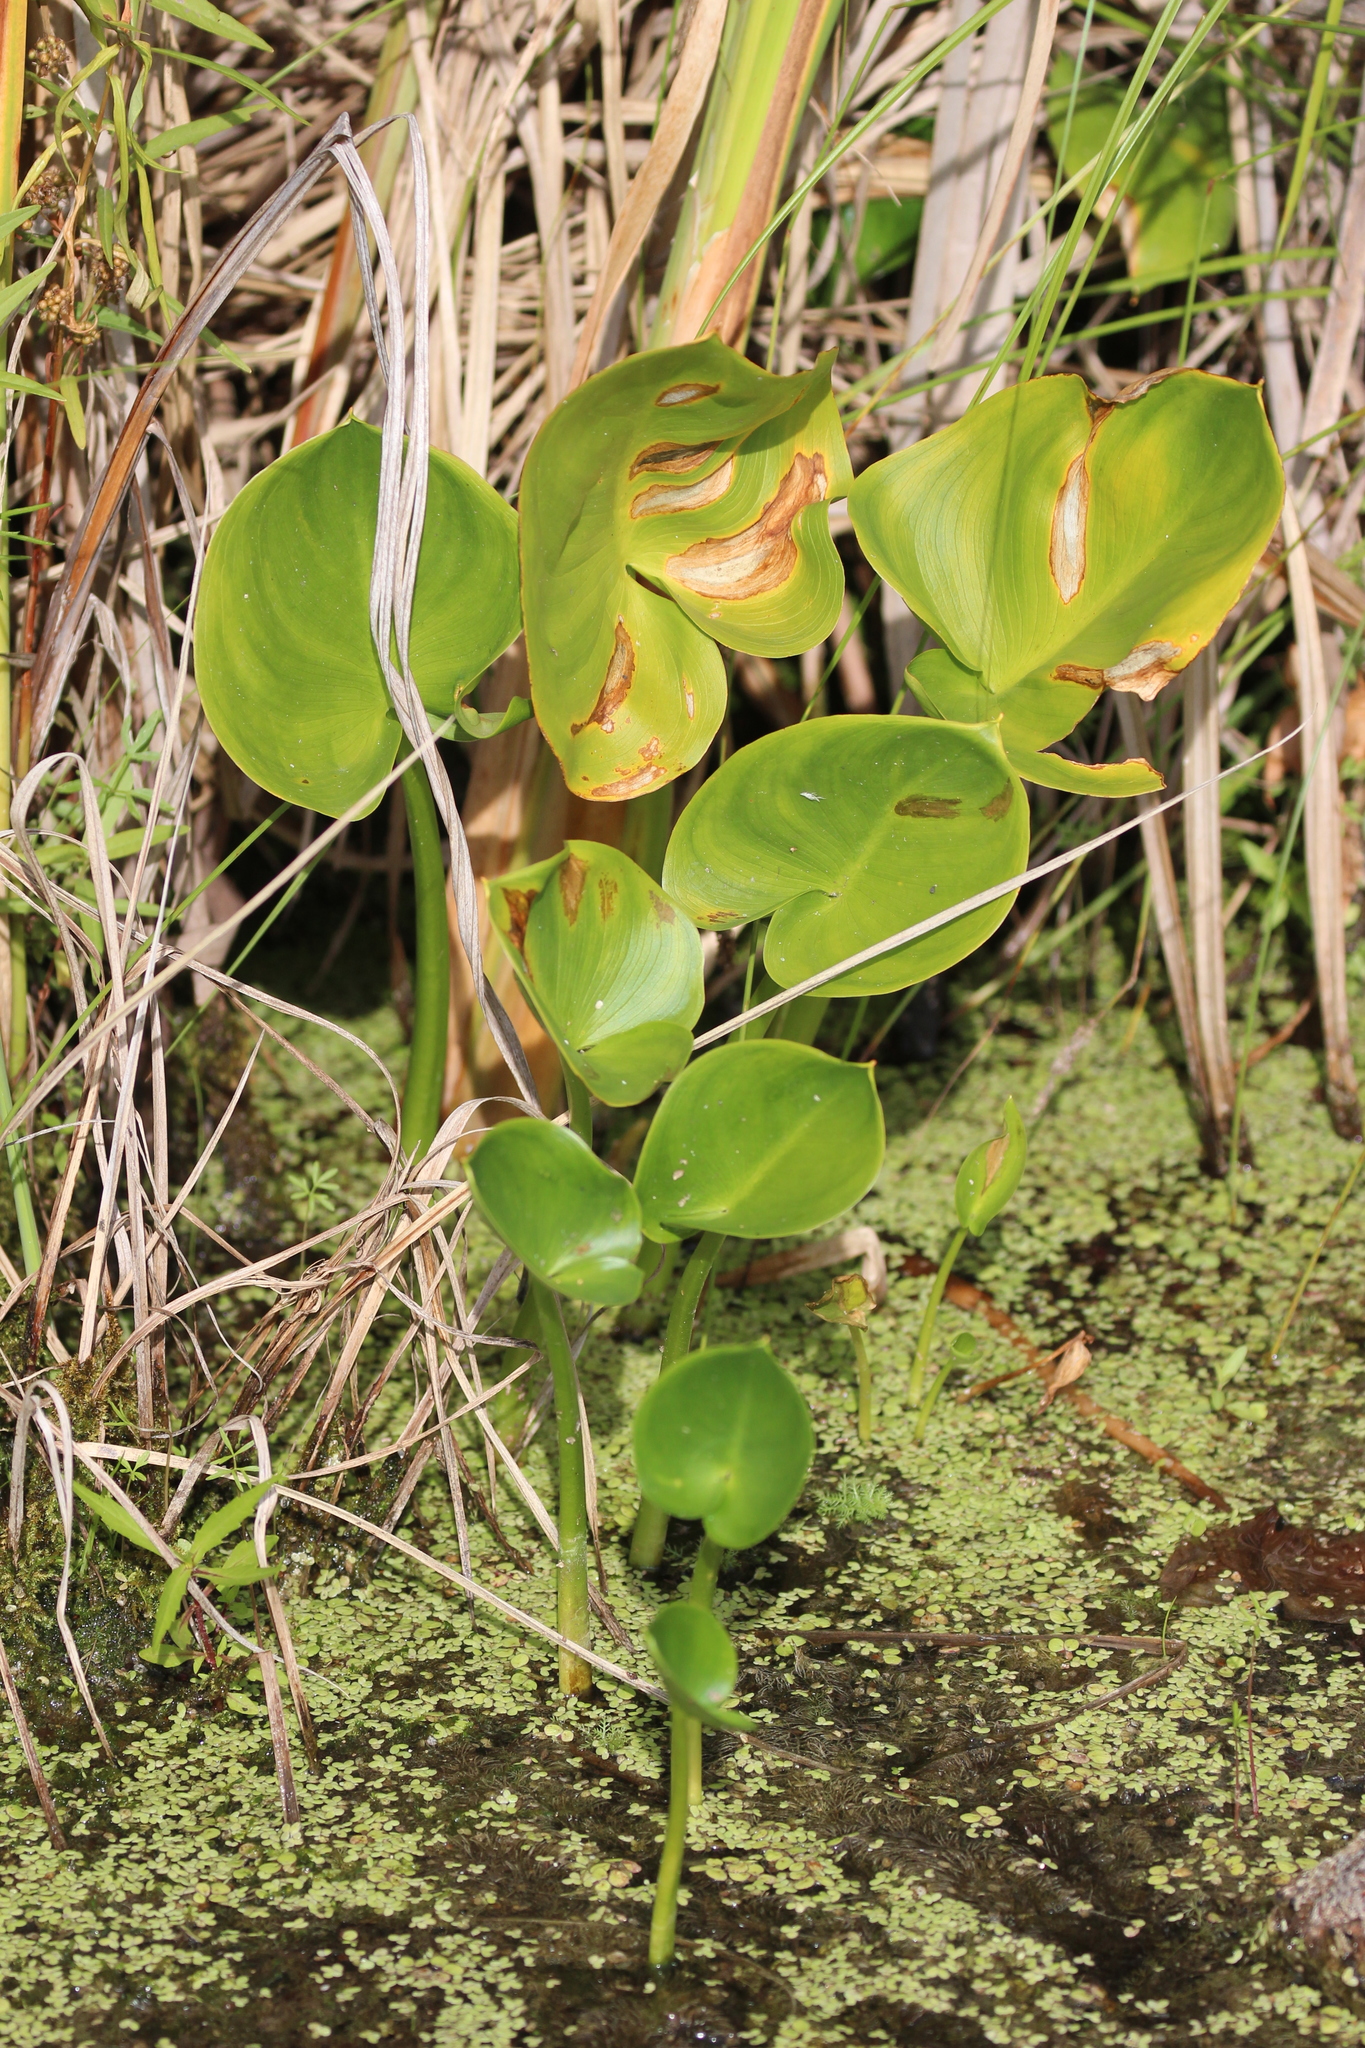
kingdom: Plantae
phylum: Tracheophyta
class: Liliopsida
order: Alismatales
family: Araceae
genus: Calla
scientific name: Calla palustris
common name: Bog arum
